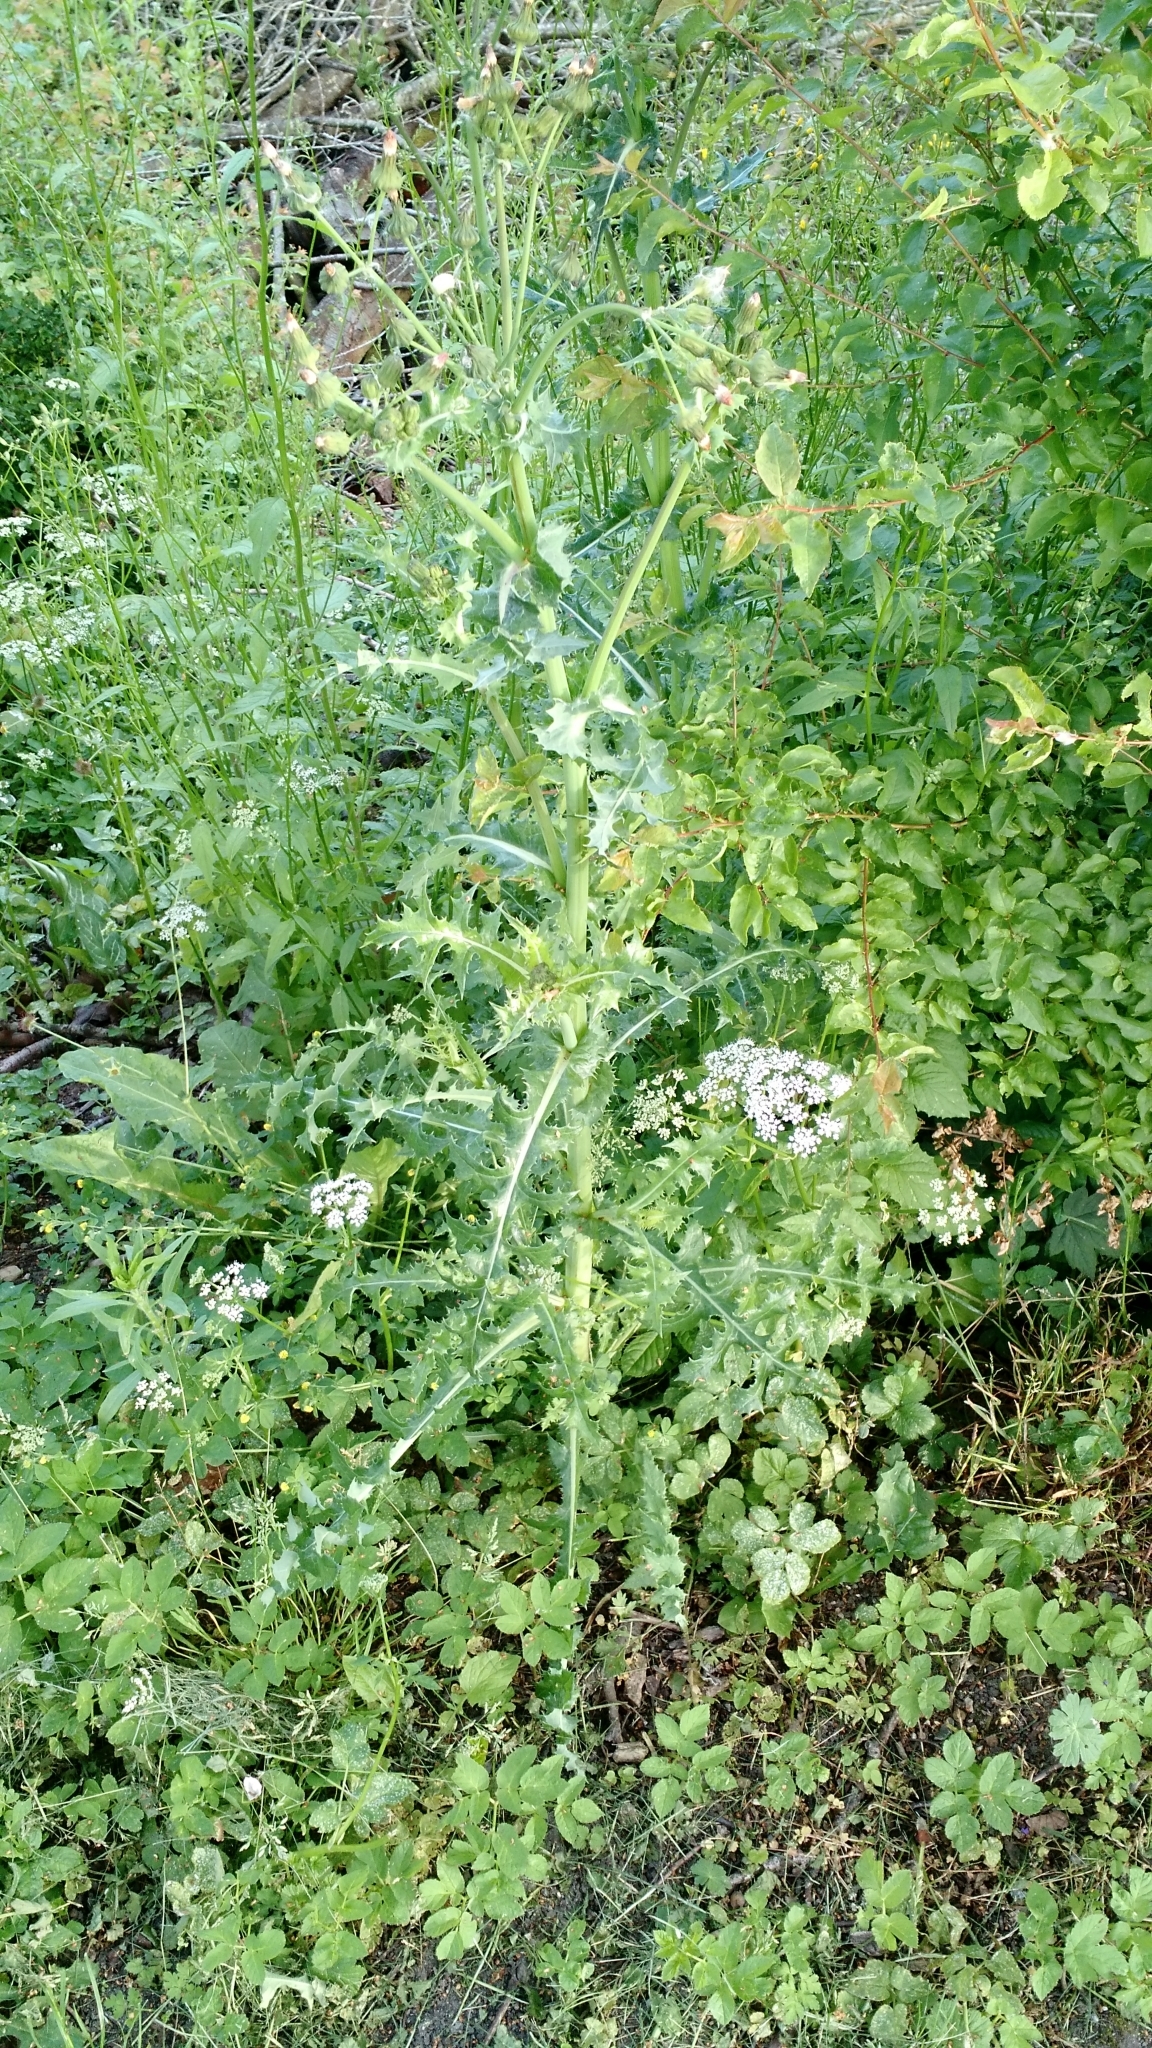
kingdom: Plantae
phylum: Tracheophyta
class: Magnoliopsida
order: Asterales
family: Asteraceae
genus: Sonchus
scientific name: Sonchus asper
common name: Prickly sow-thistle
